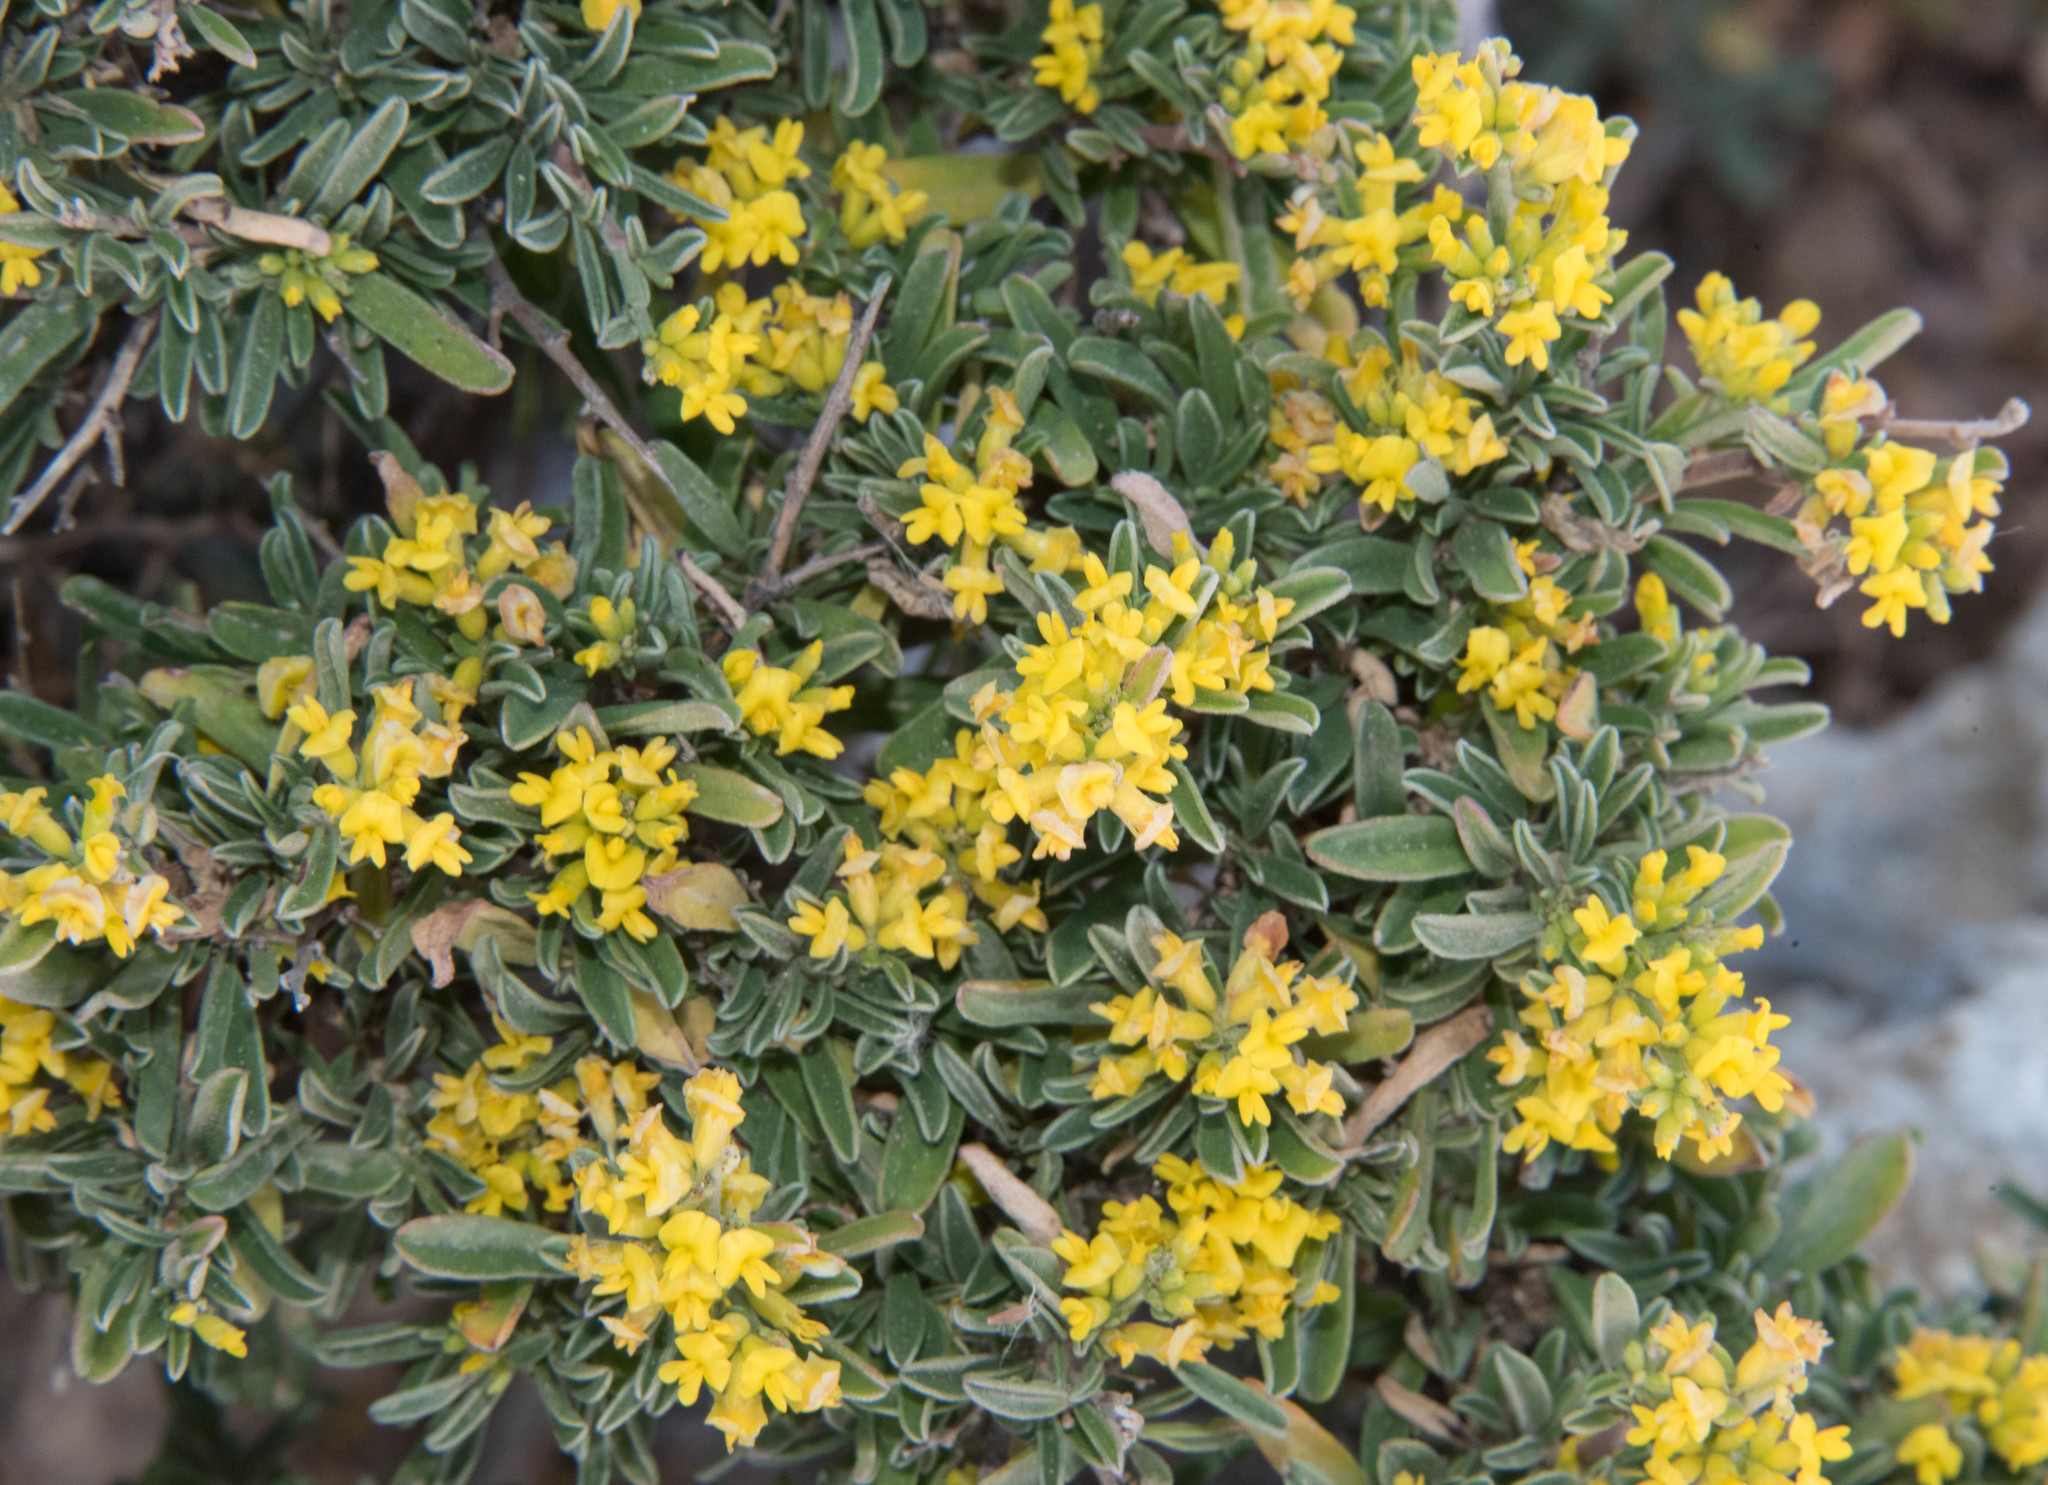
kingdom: Plantae
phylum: Tracheophyta
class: Magnoliopsida
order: Fabales
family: Fabaceae
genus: Anthyllis
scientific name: Anthyllis hermanniae
